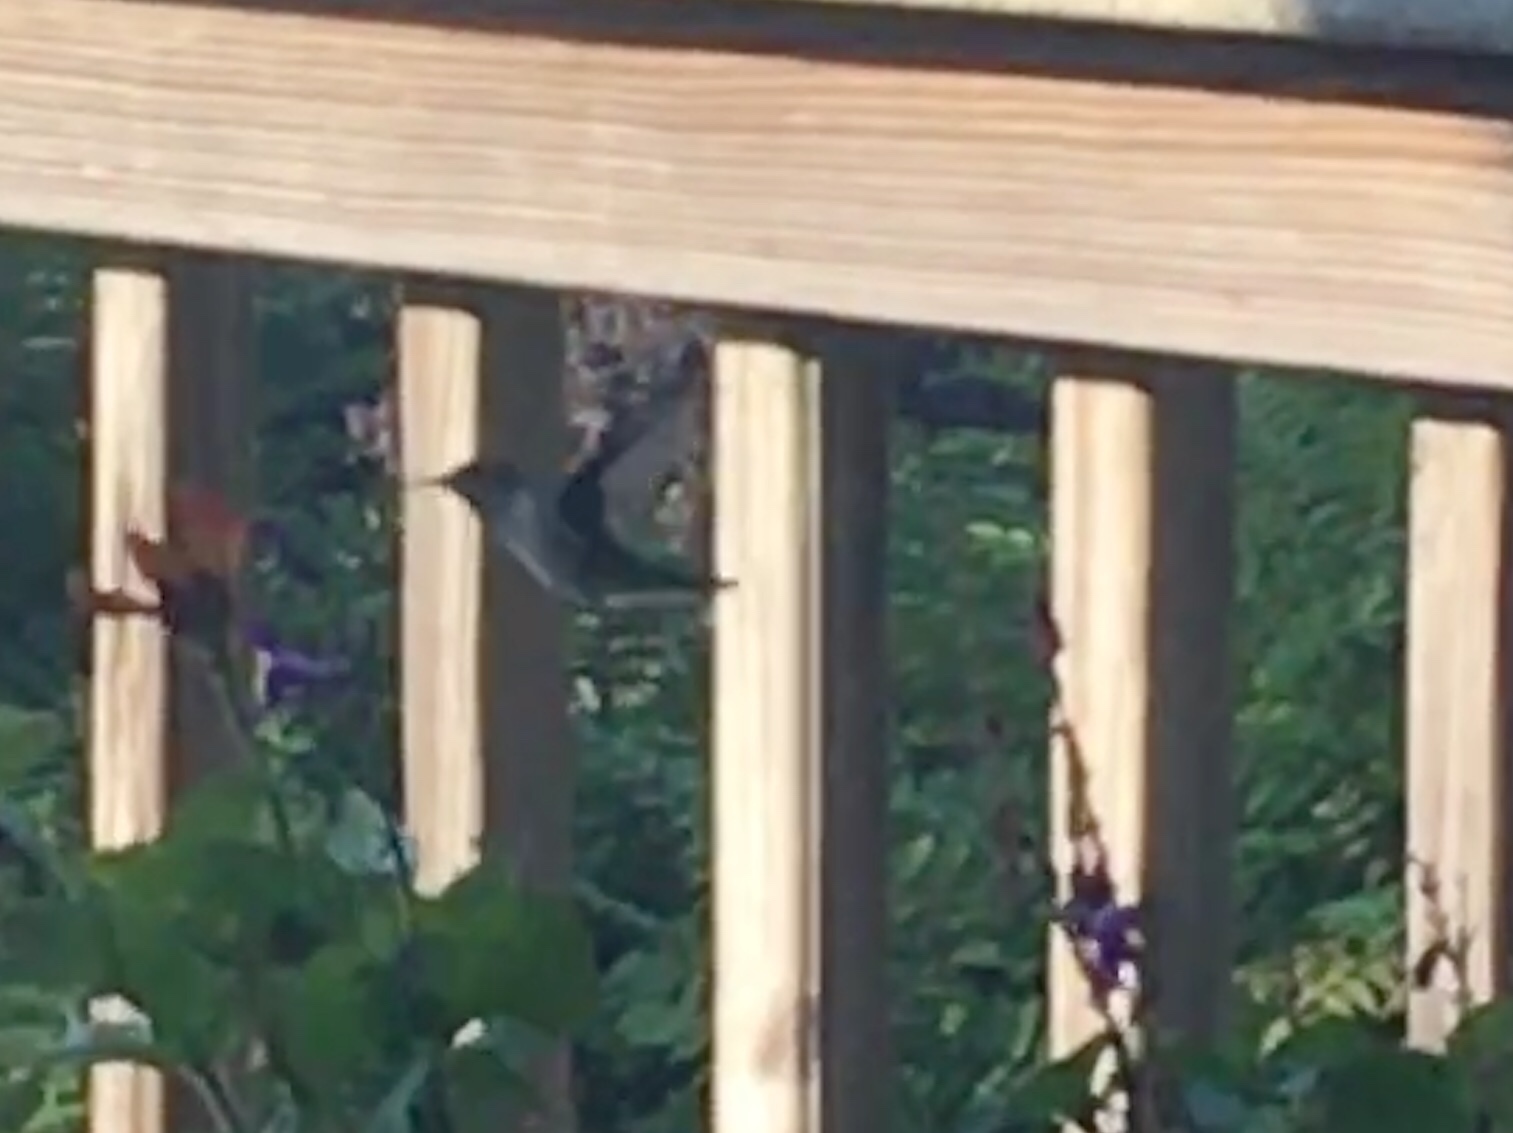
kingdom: Animalia
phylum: Chordata
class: Aves
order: Apodiformes
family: Trochilidae
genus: Archilochus
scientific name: Archilochus colubris
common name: Ruby-throated hummingbird
